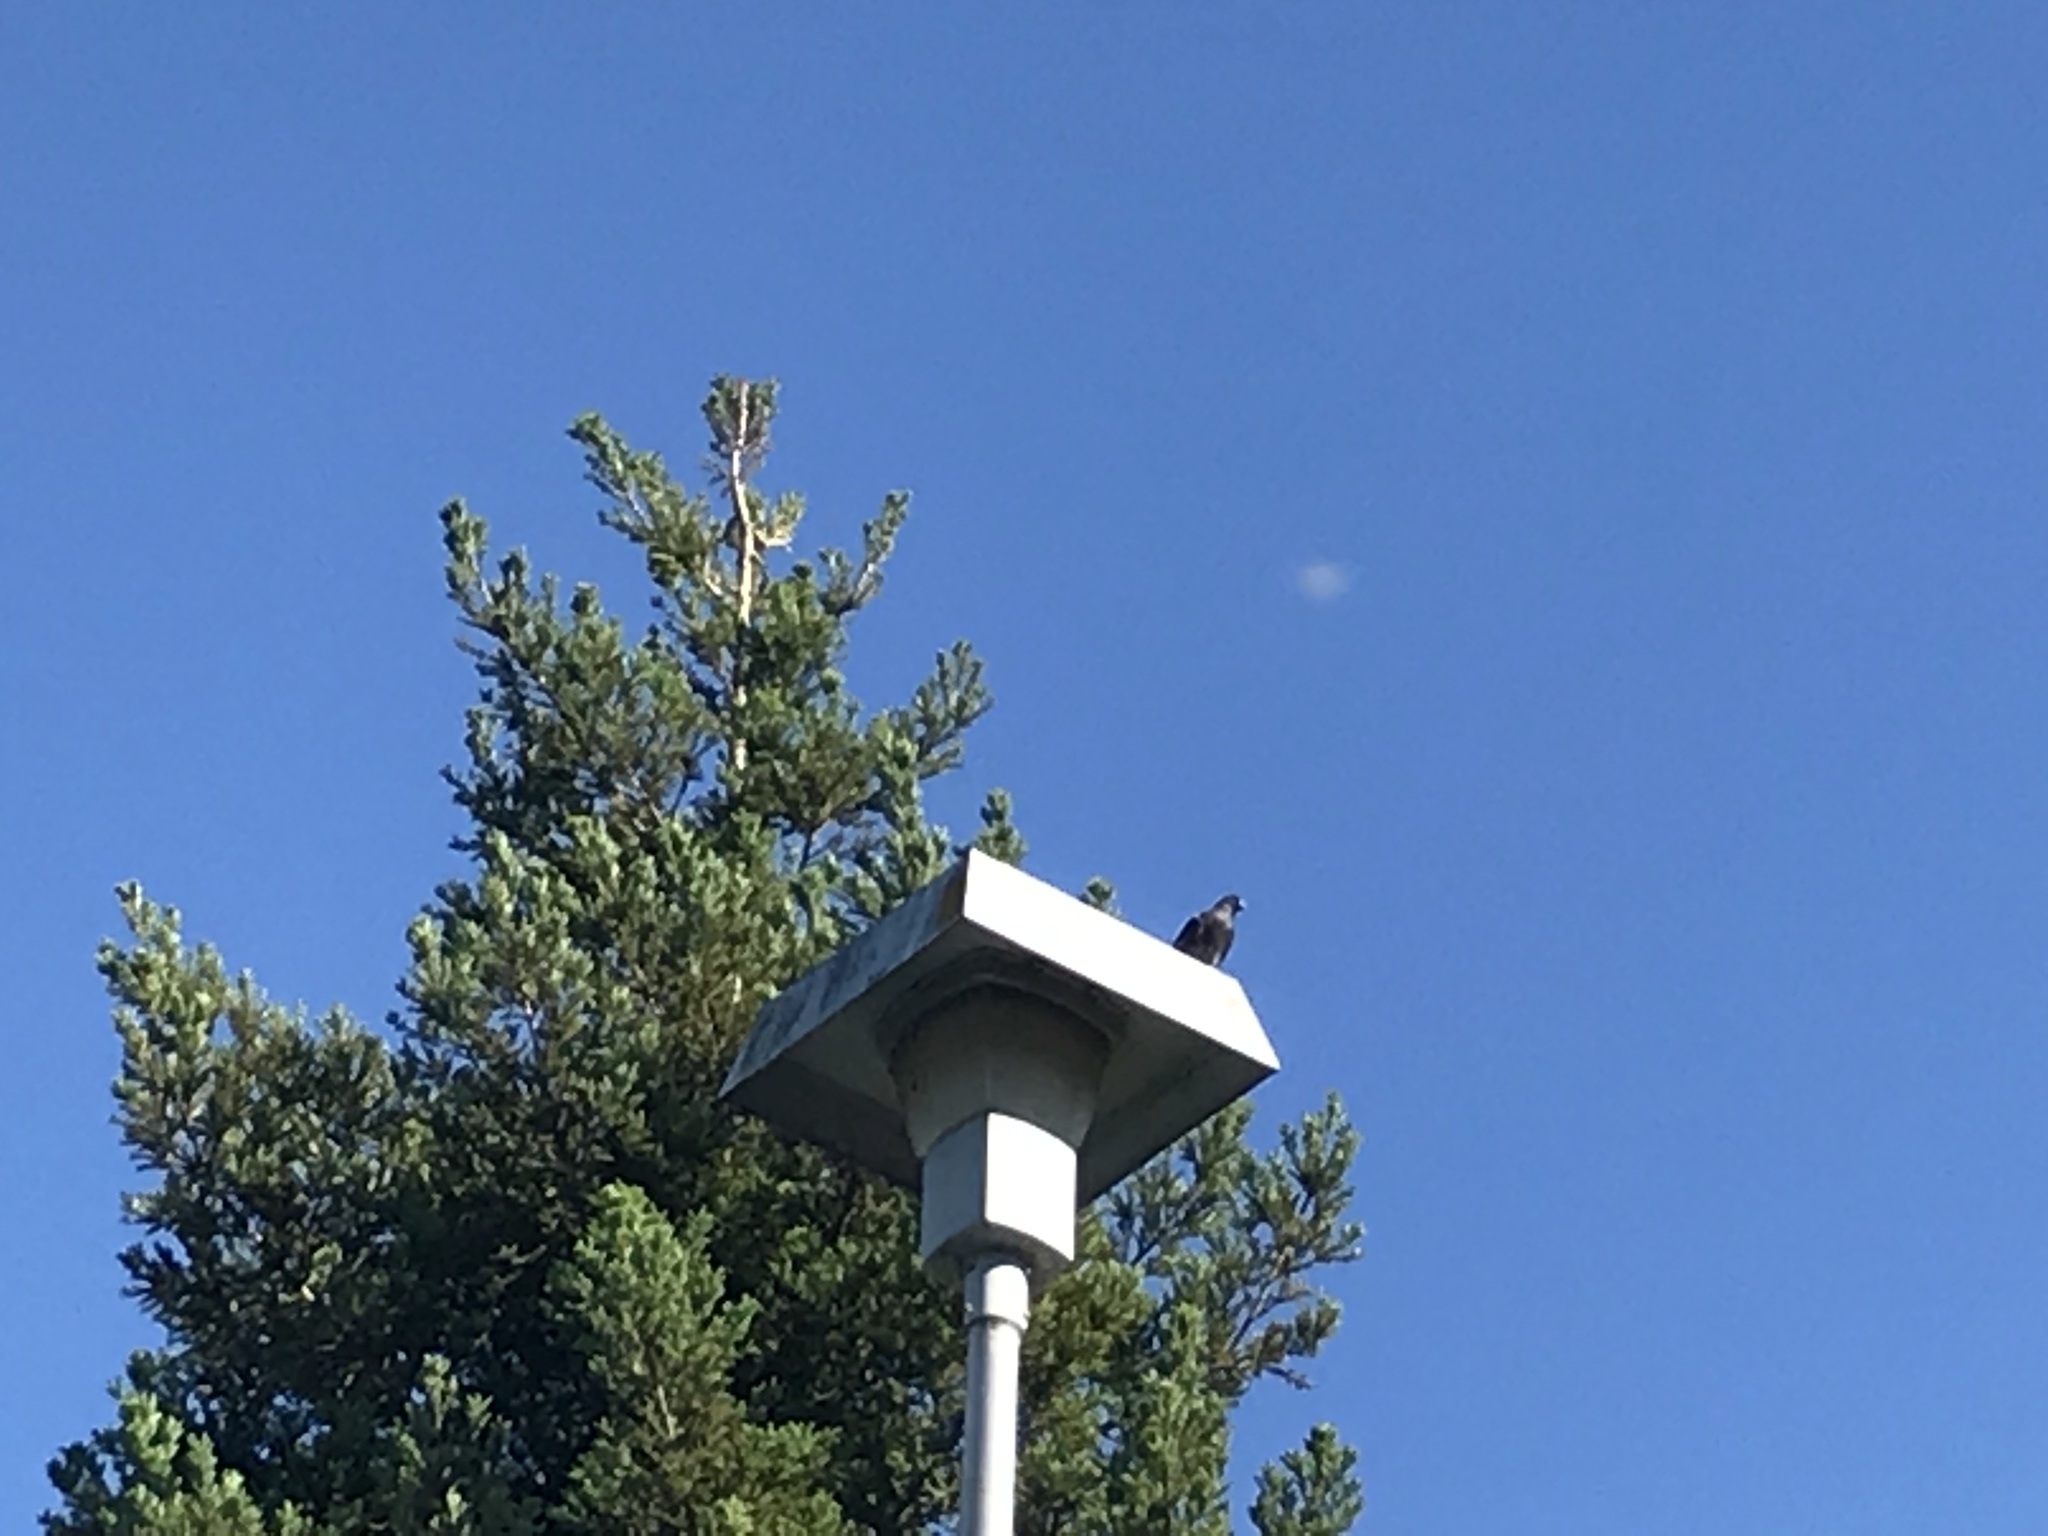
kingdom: Animalia
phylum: Chordata
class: Aves
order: Columbiformes
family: Columbidae
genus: Columba
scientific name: Columba livia
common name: Rock pigeon
